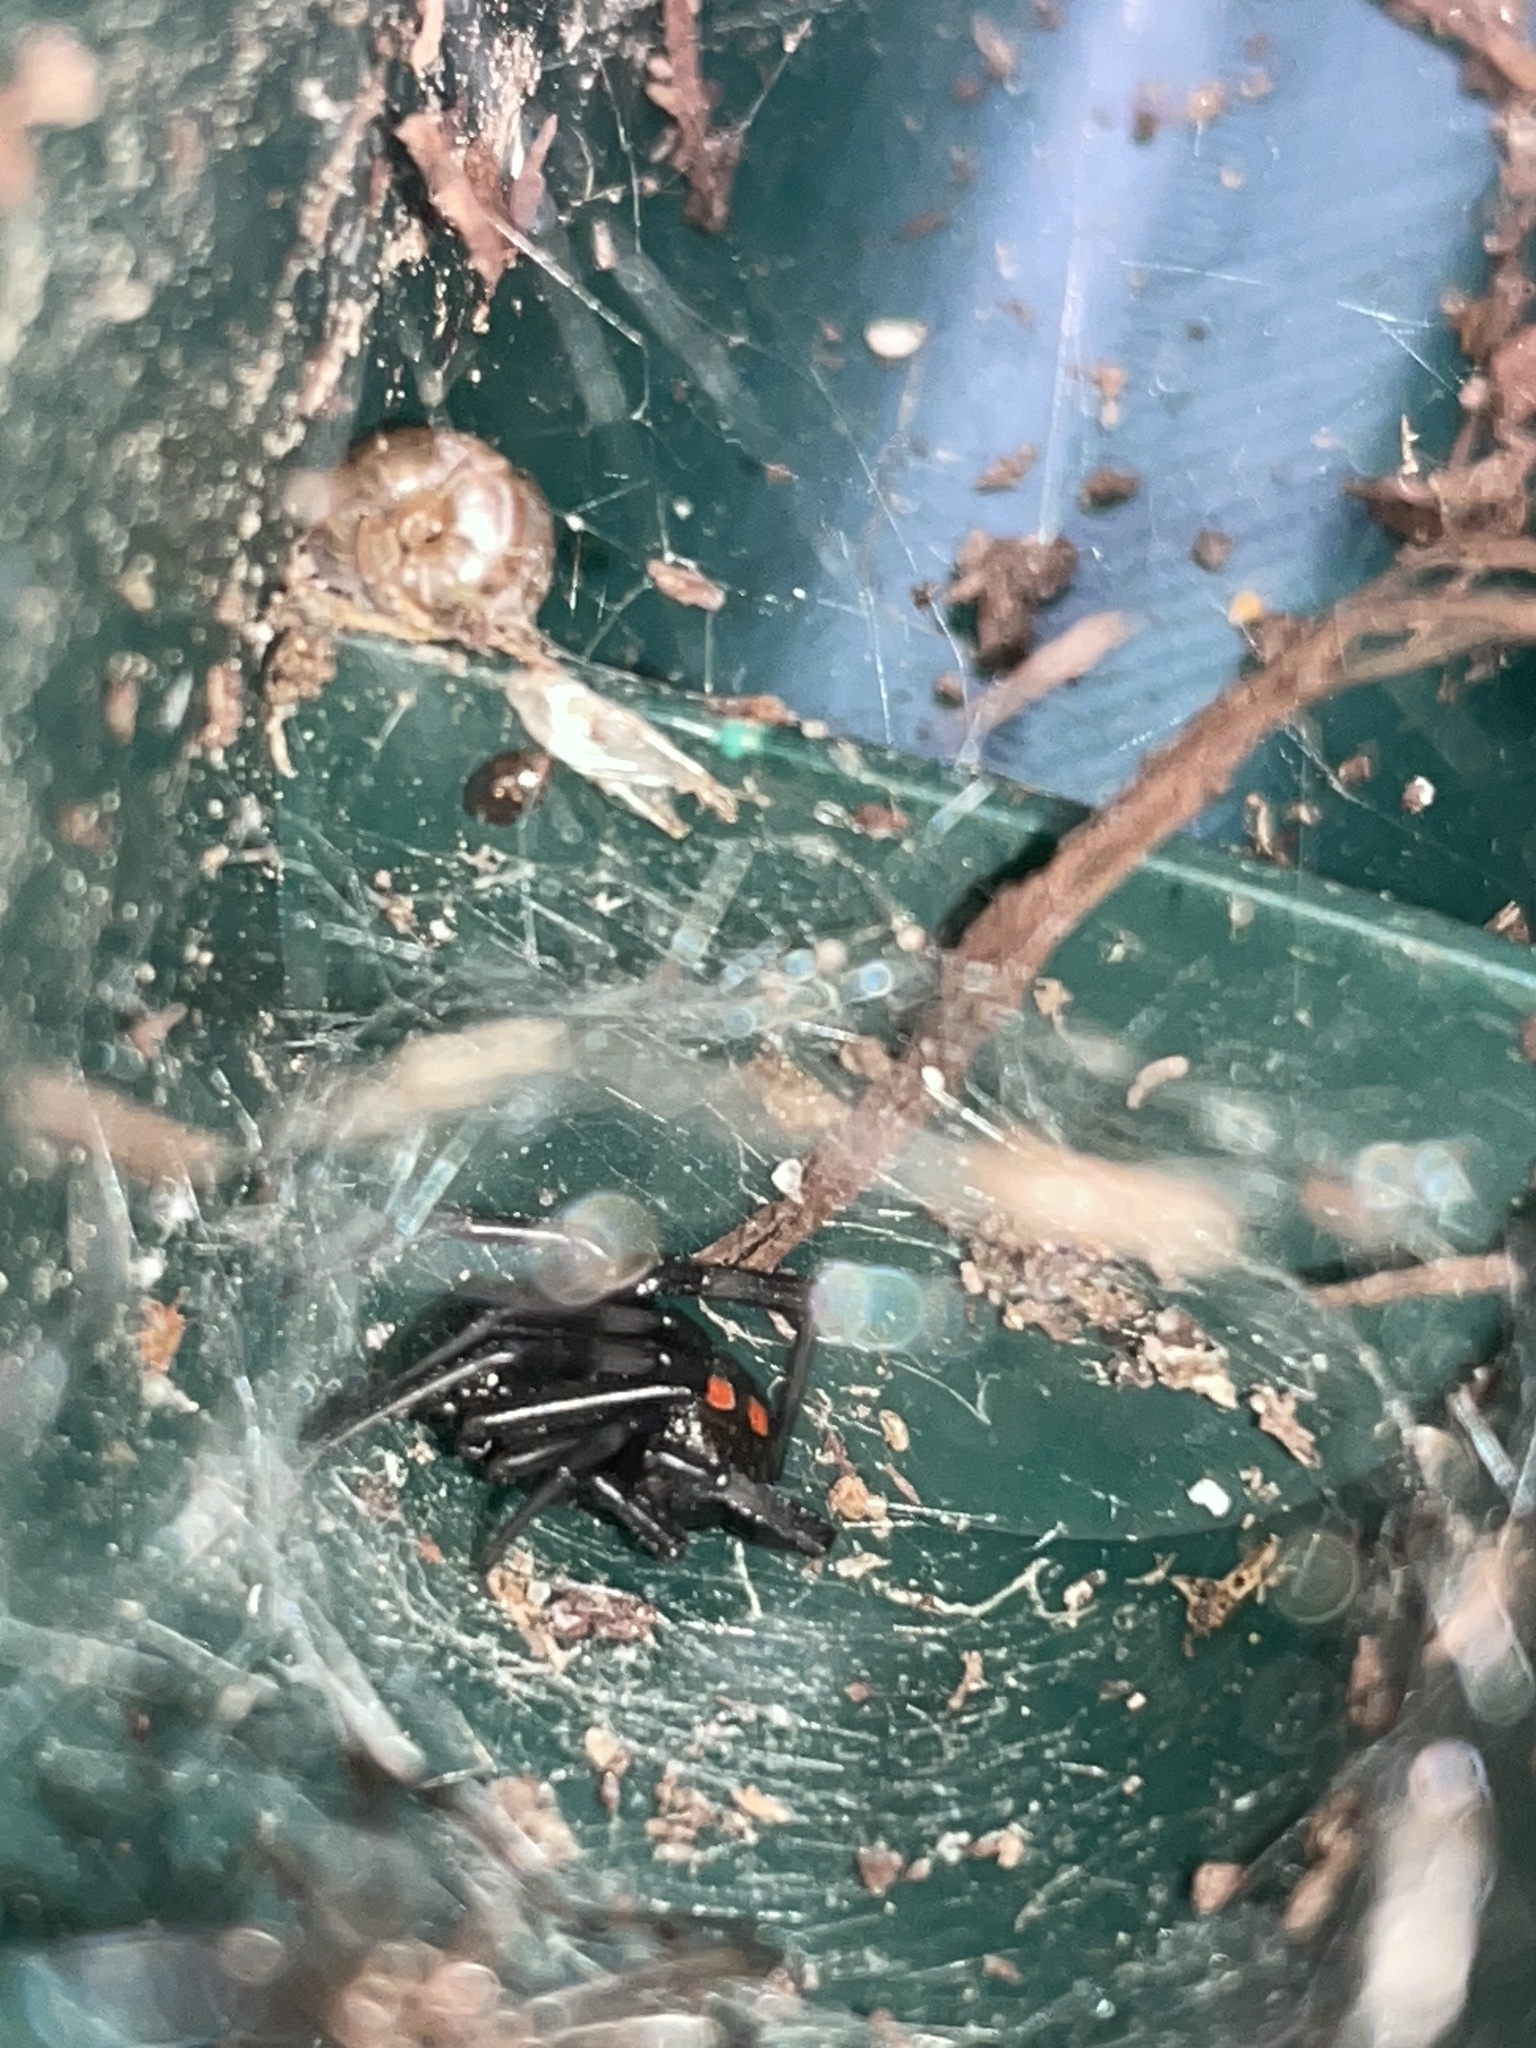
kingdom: Animalia
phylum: Arthropoda
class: Arachnida
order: Araneae
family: Theridiidae
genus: Latrodectus
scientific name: Latrodectus mactans
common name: Cobweb spiders
